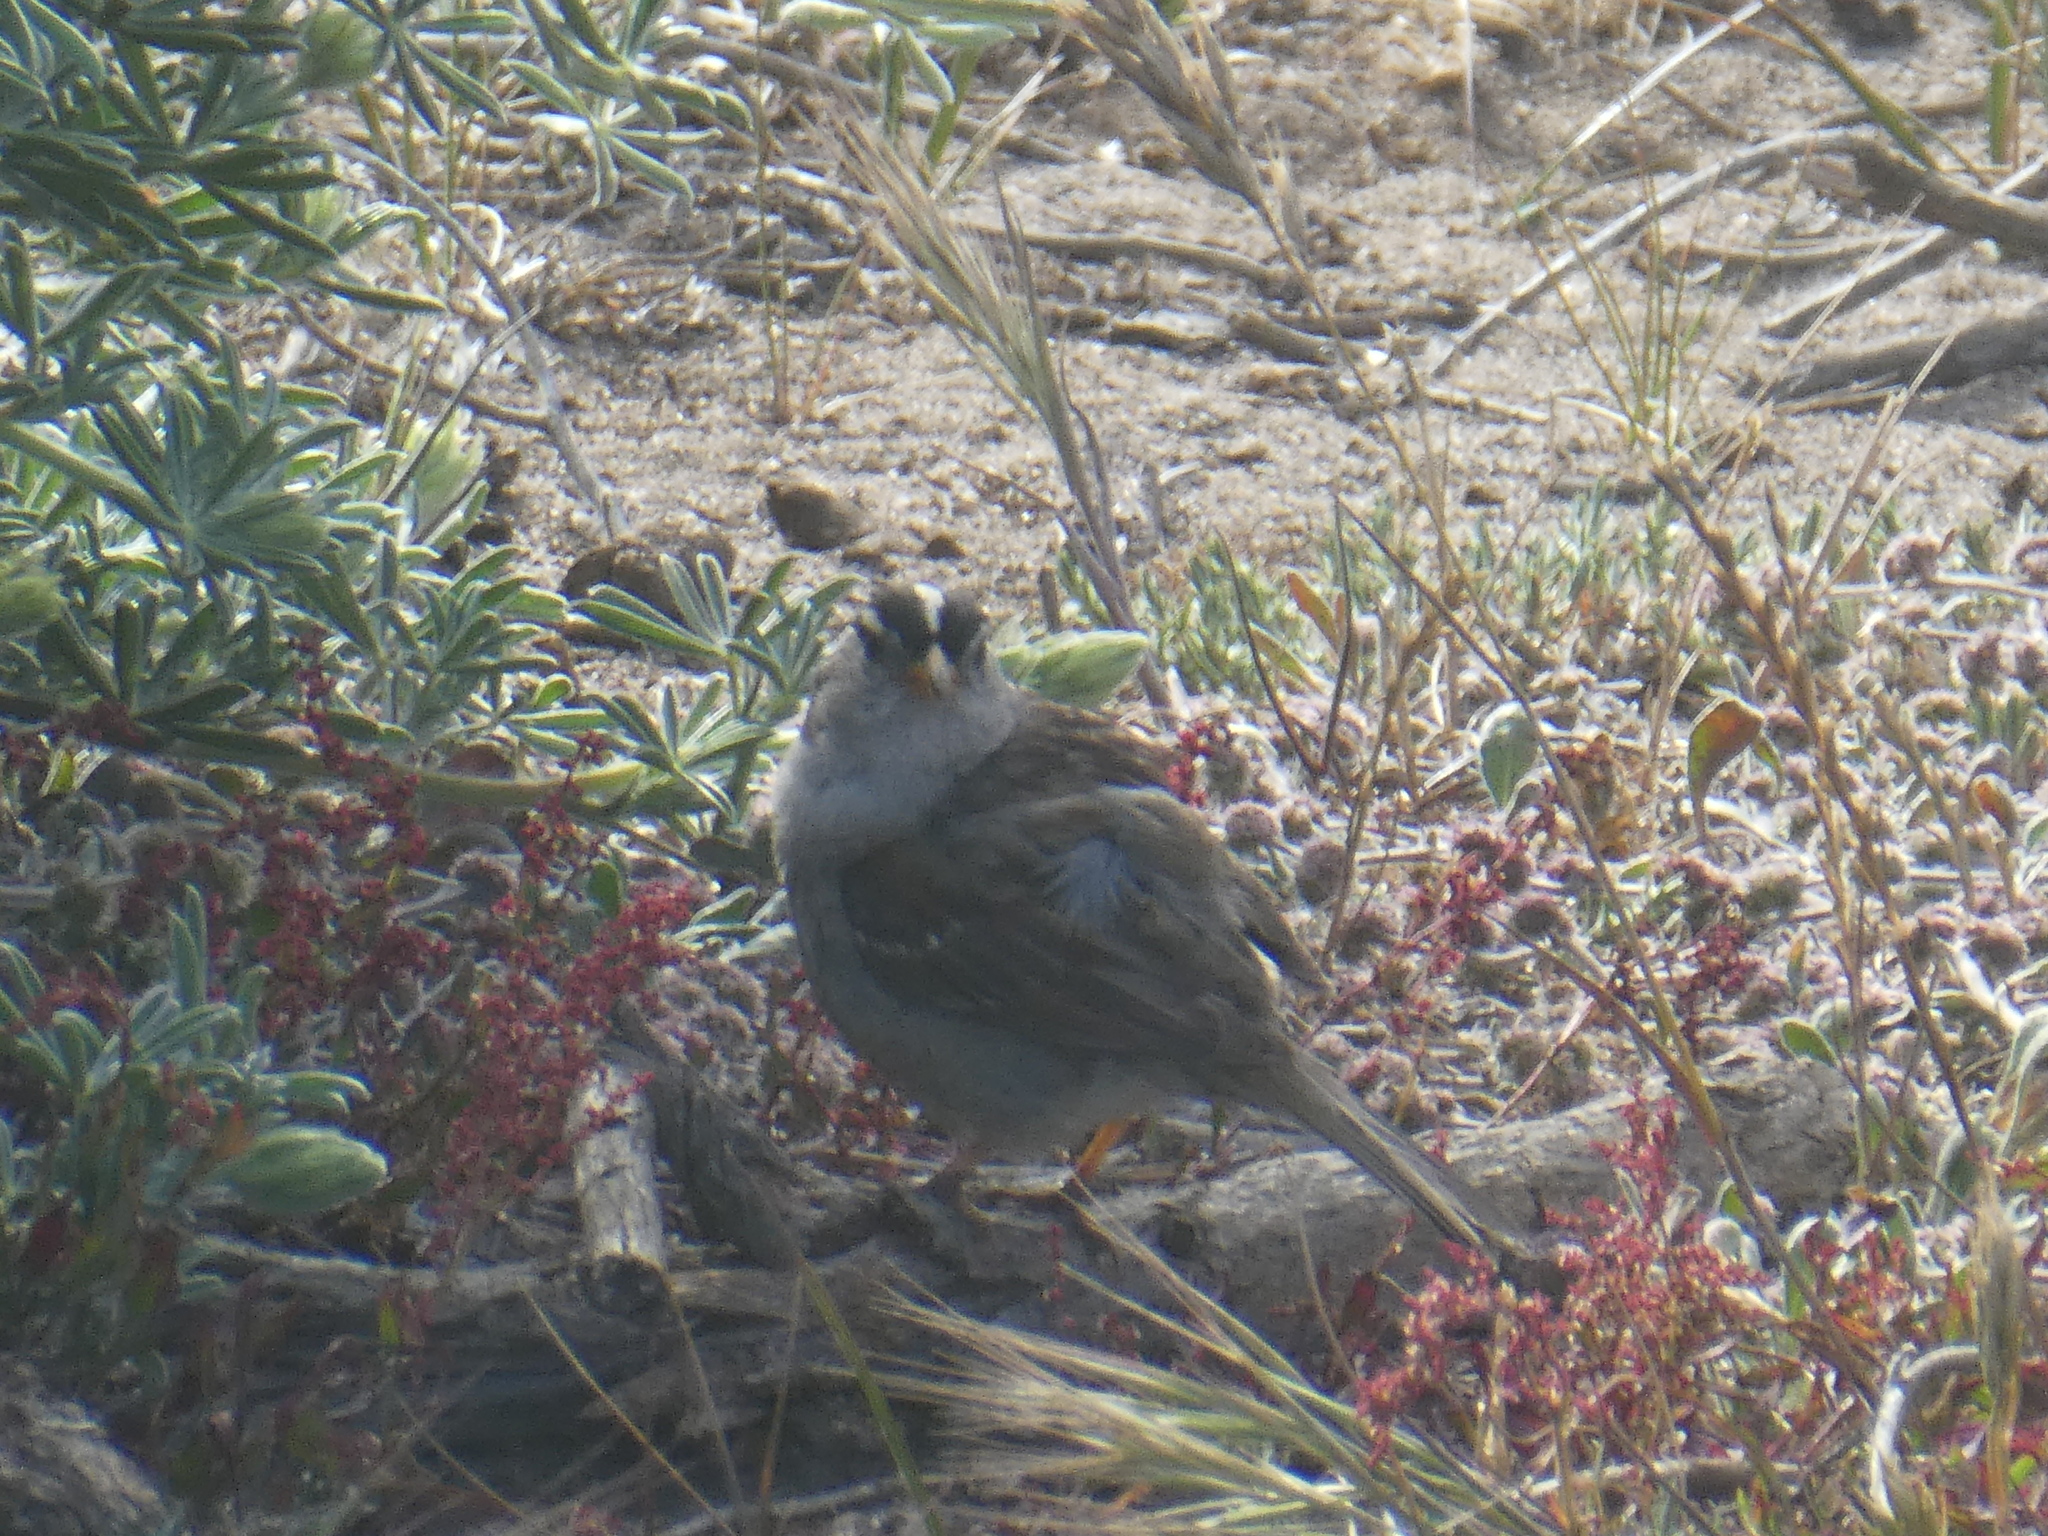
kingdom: Animalia
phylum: Chordata
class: Aves
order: Passeriformes
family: Passerellidae
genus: Zonotrichia
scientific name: Zonotrichia leucophrys
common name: White-crowned sparrow
